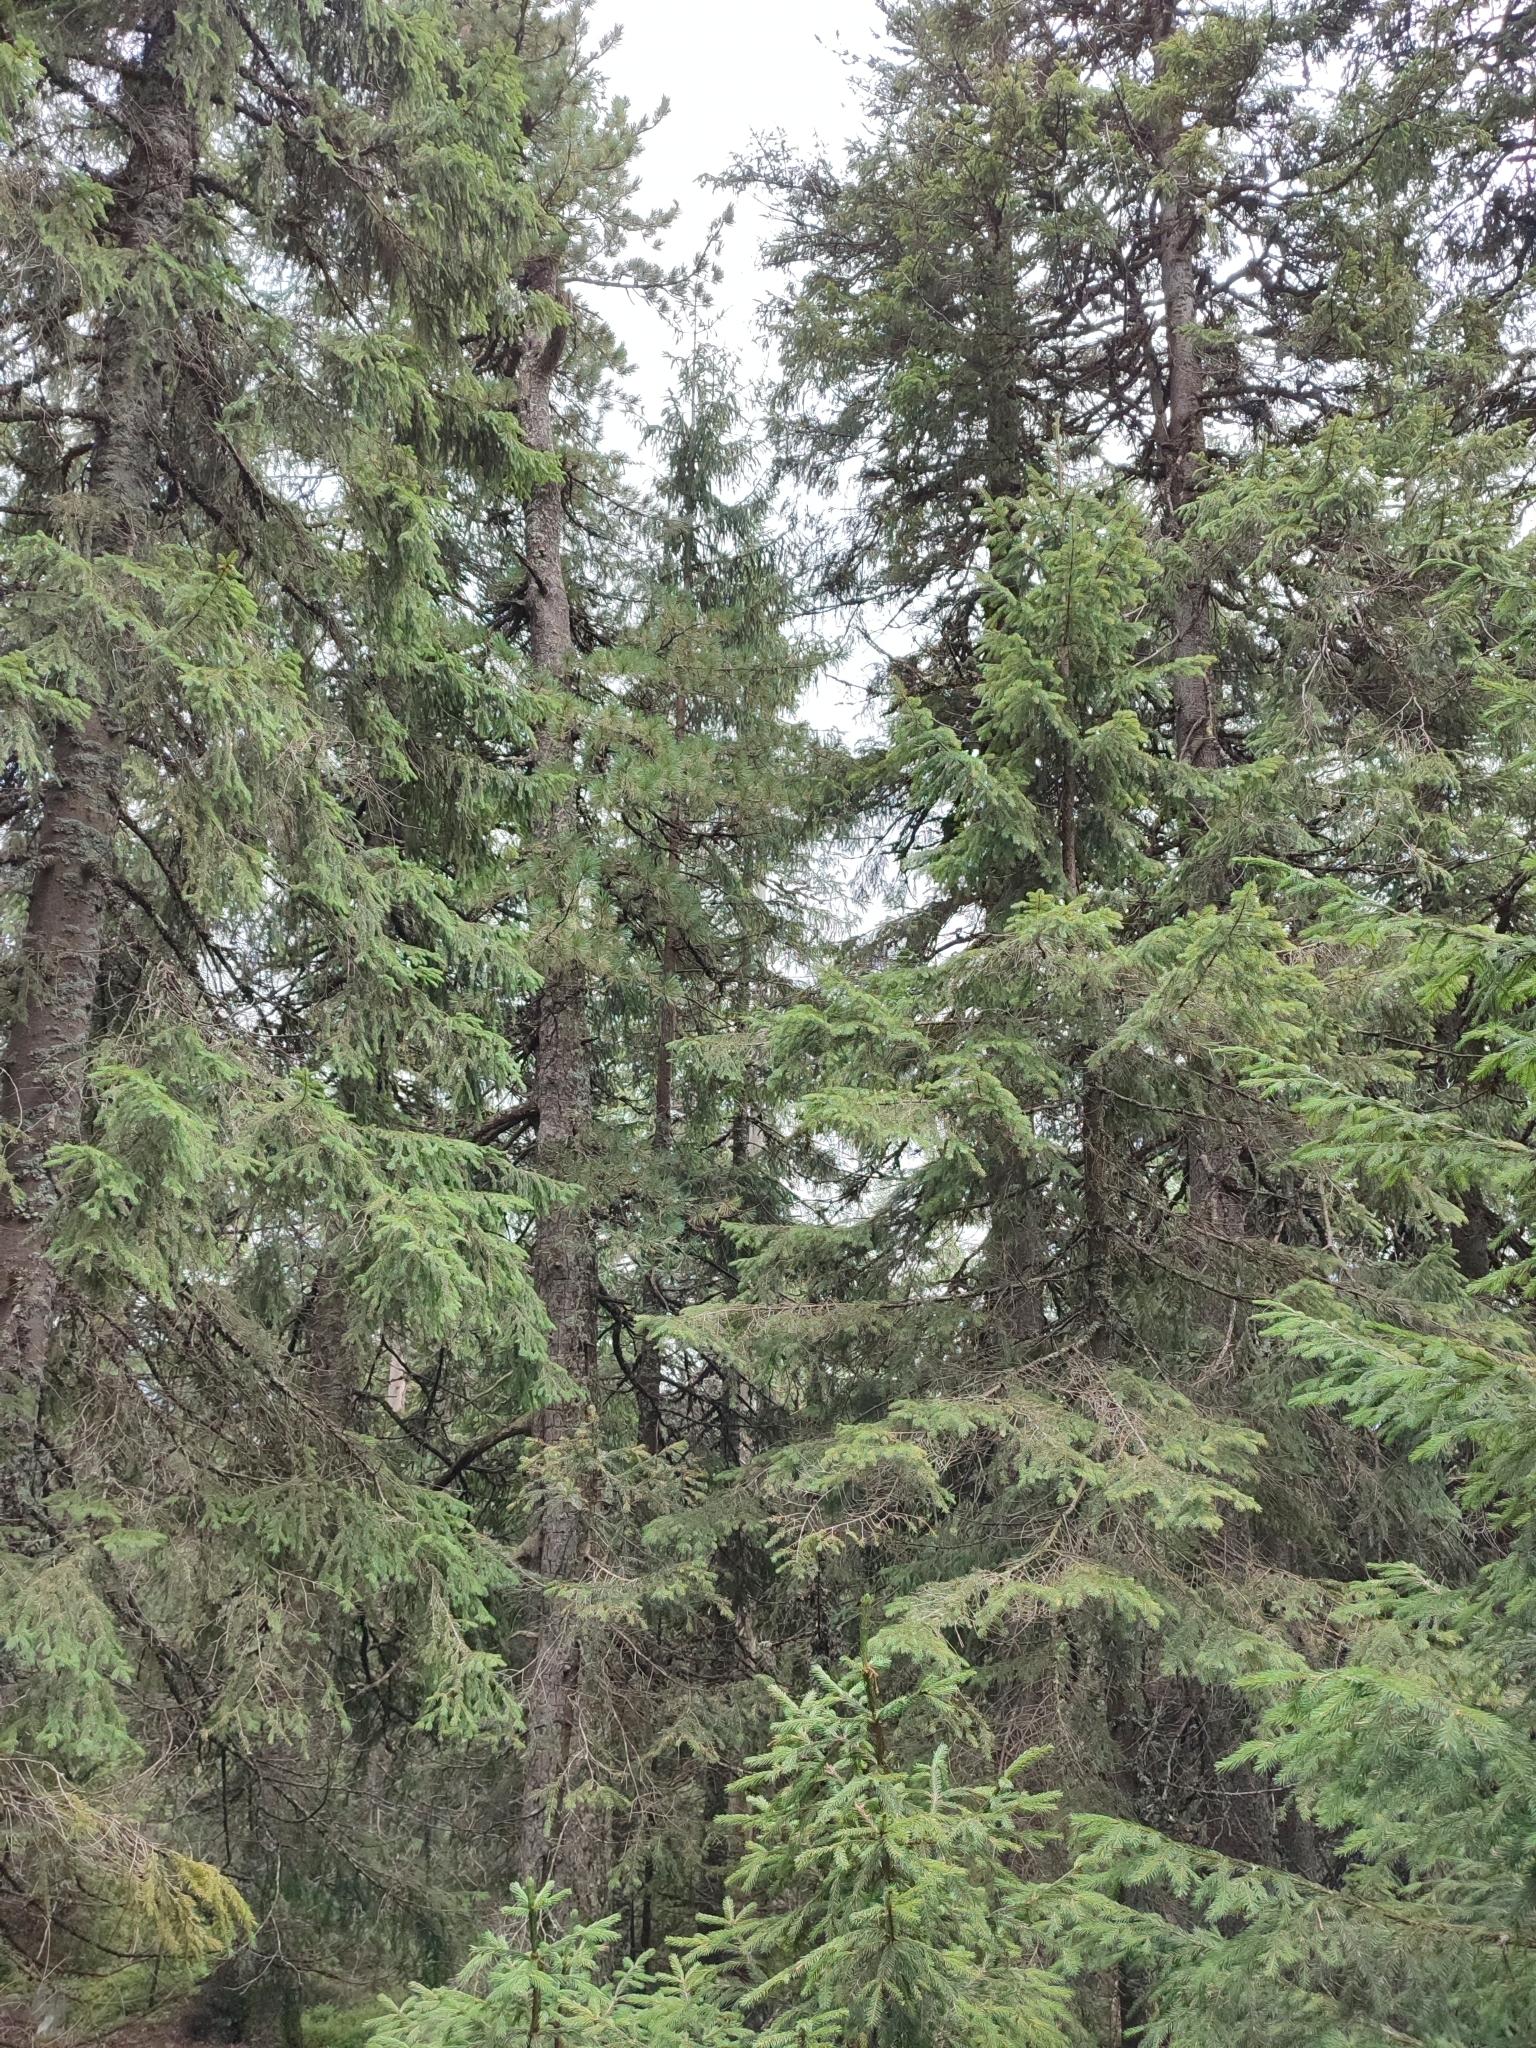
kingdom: Plantae
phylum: Tracheophyta
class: Pinopsida
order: Pinales
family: Pinaceae
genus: Picea
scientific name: Picea abies
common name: Norway spruce
